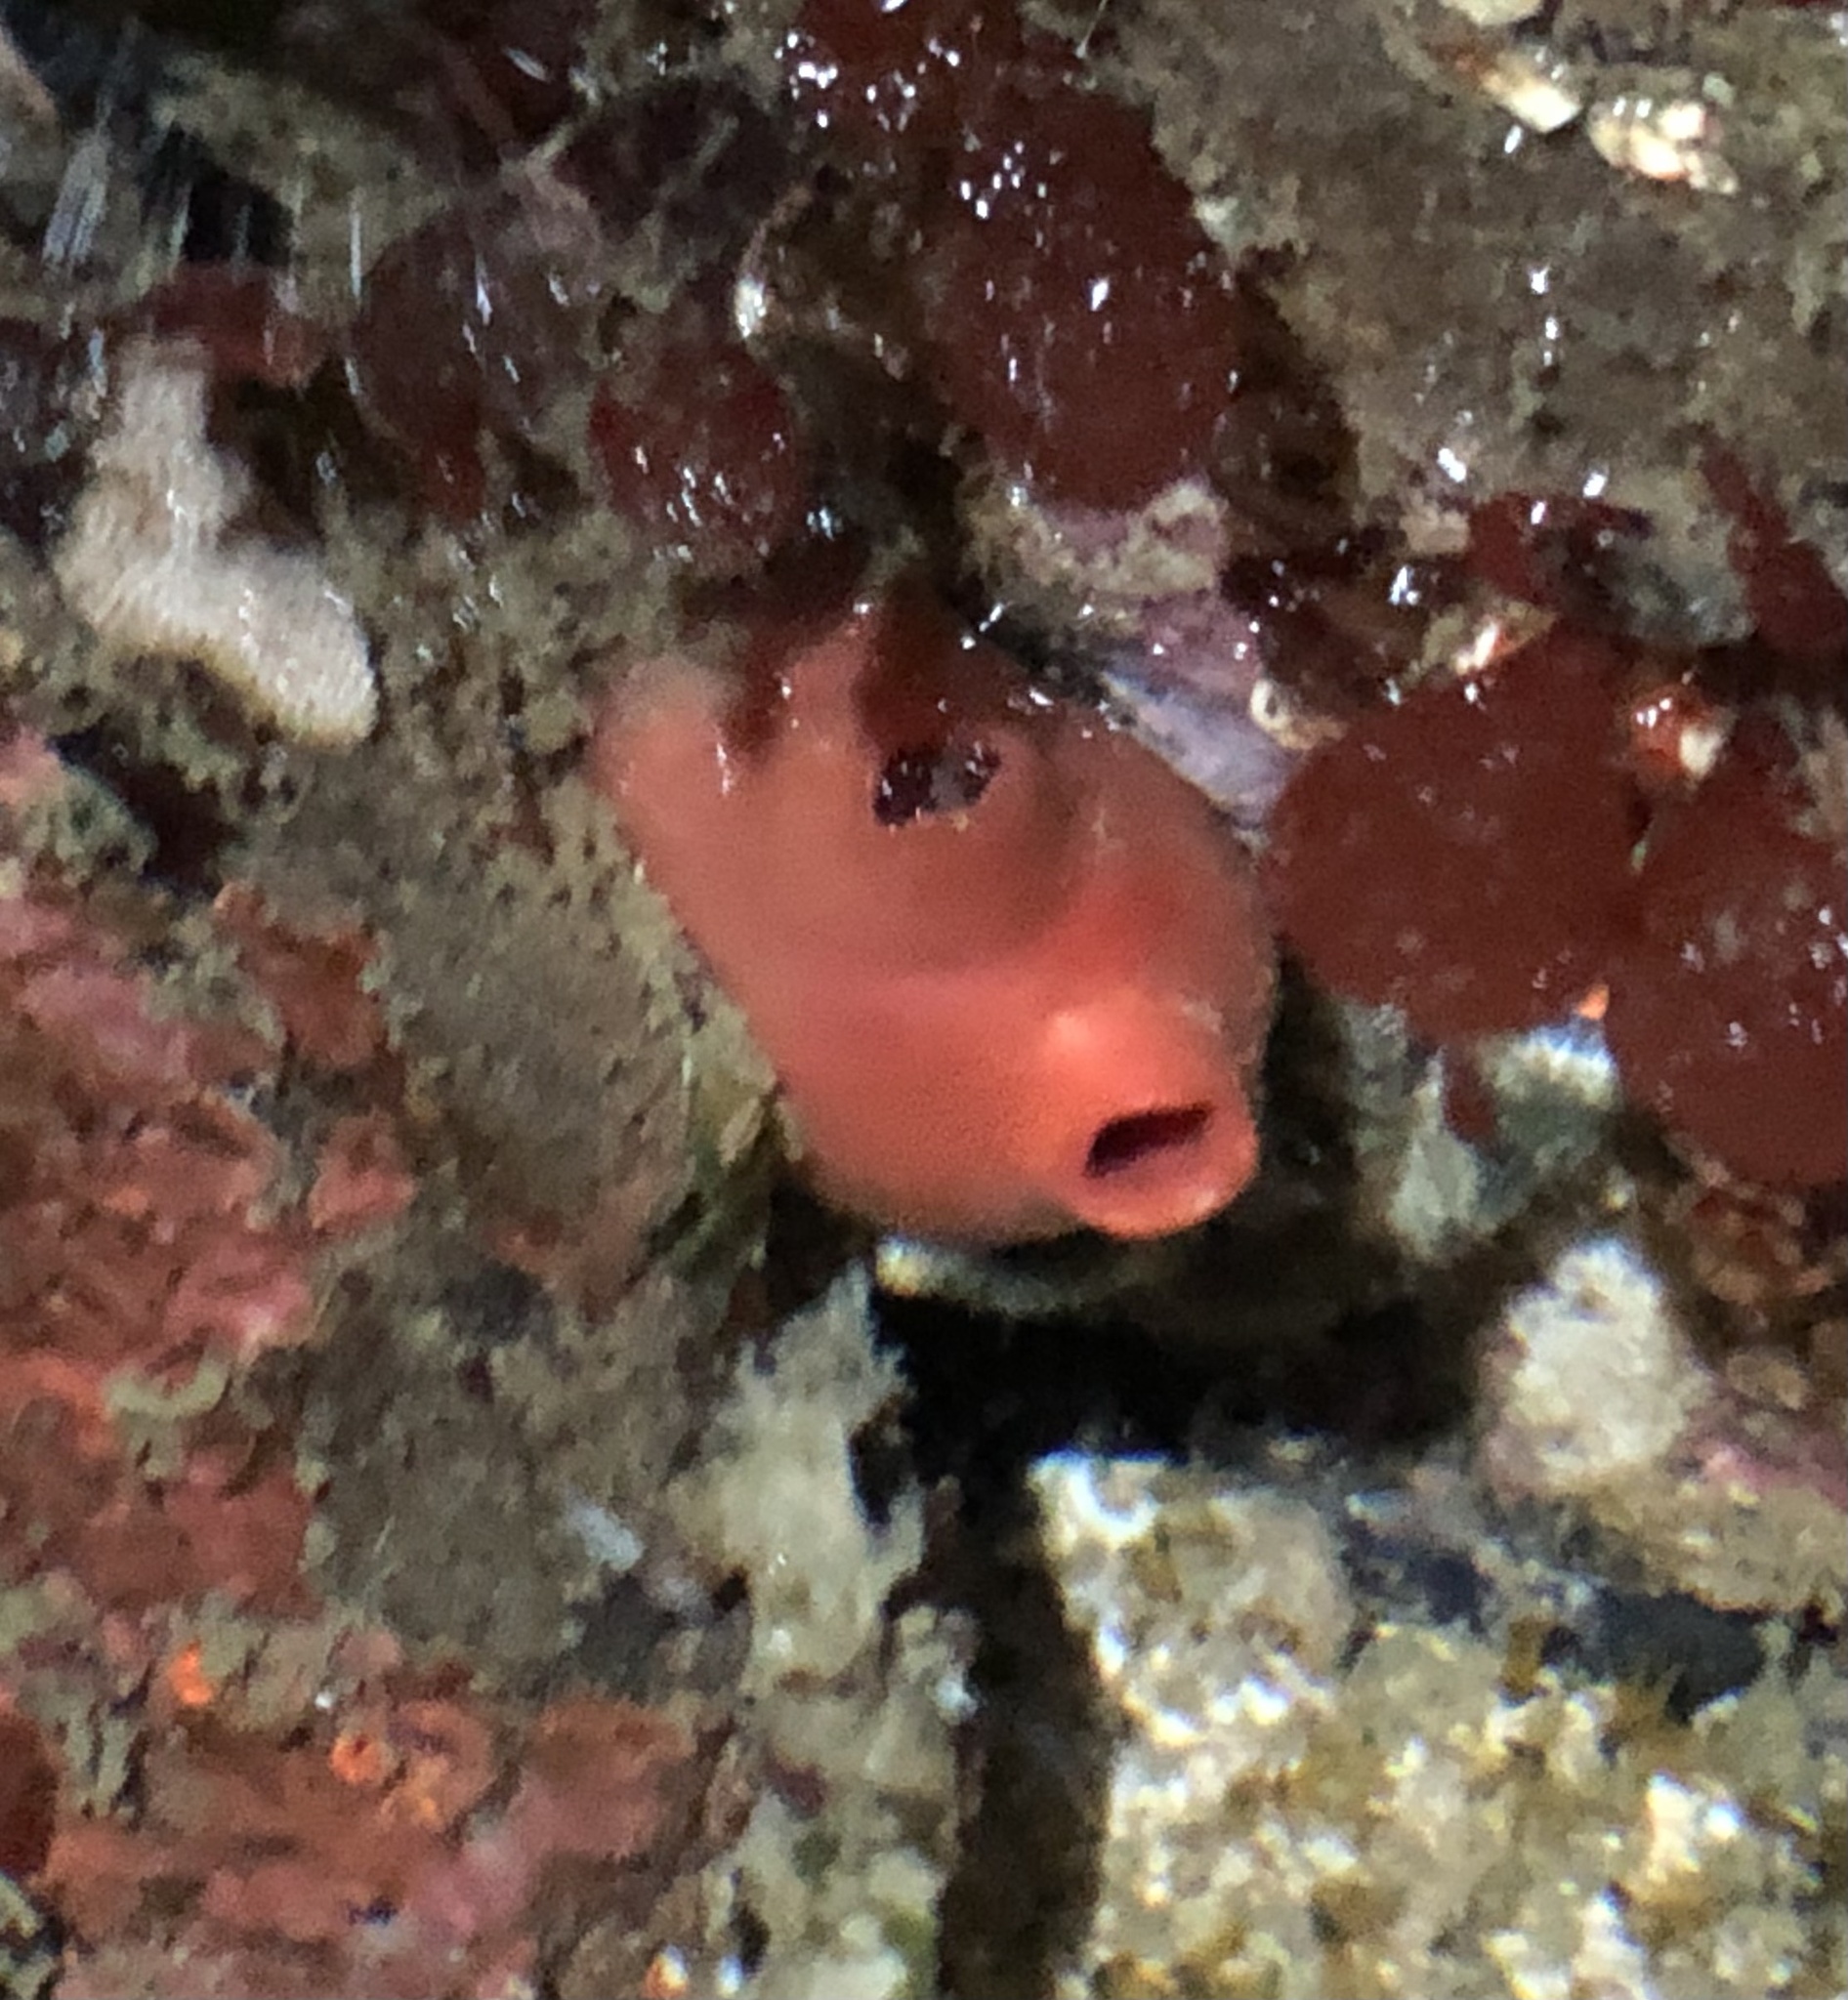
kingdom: Animalia
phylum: Chordata
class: Ascidiacea
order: Stolidobranchia
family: Styelidae
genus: Cnemidocarpa
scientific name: Cnemidocarpa finmarkiensis
